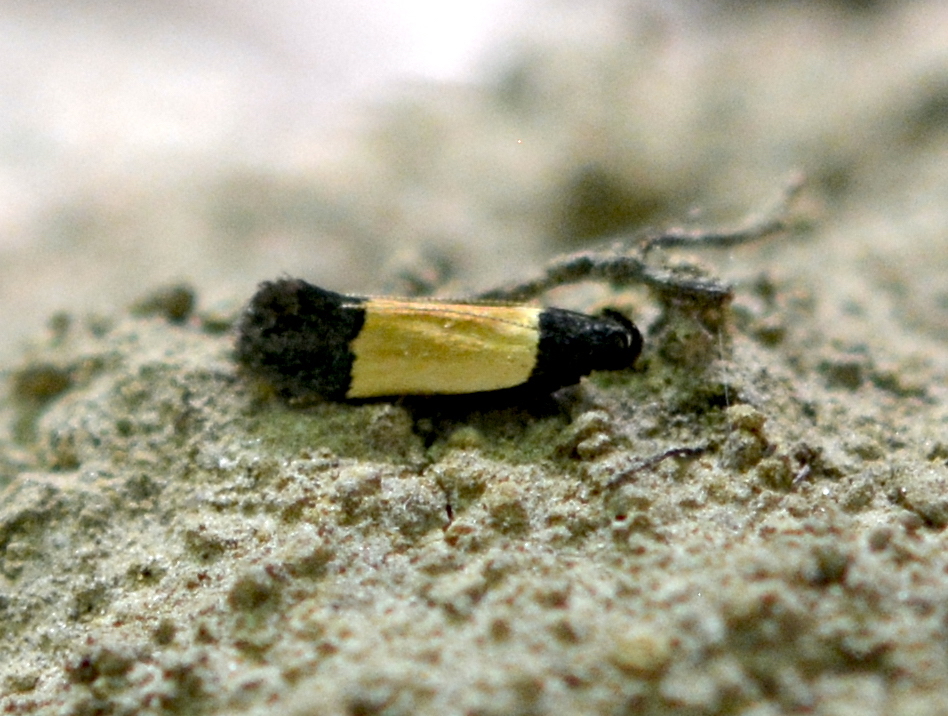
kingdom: Animalia
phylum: Arthropoda
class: Insecta
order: Lepidoptera
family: Gelechiidae
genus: Anacampsis
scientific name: Anacampsis coverdalella
